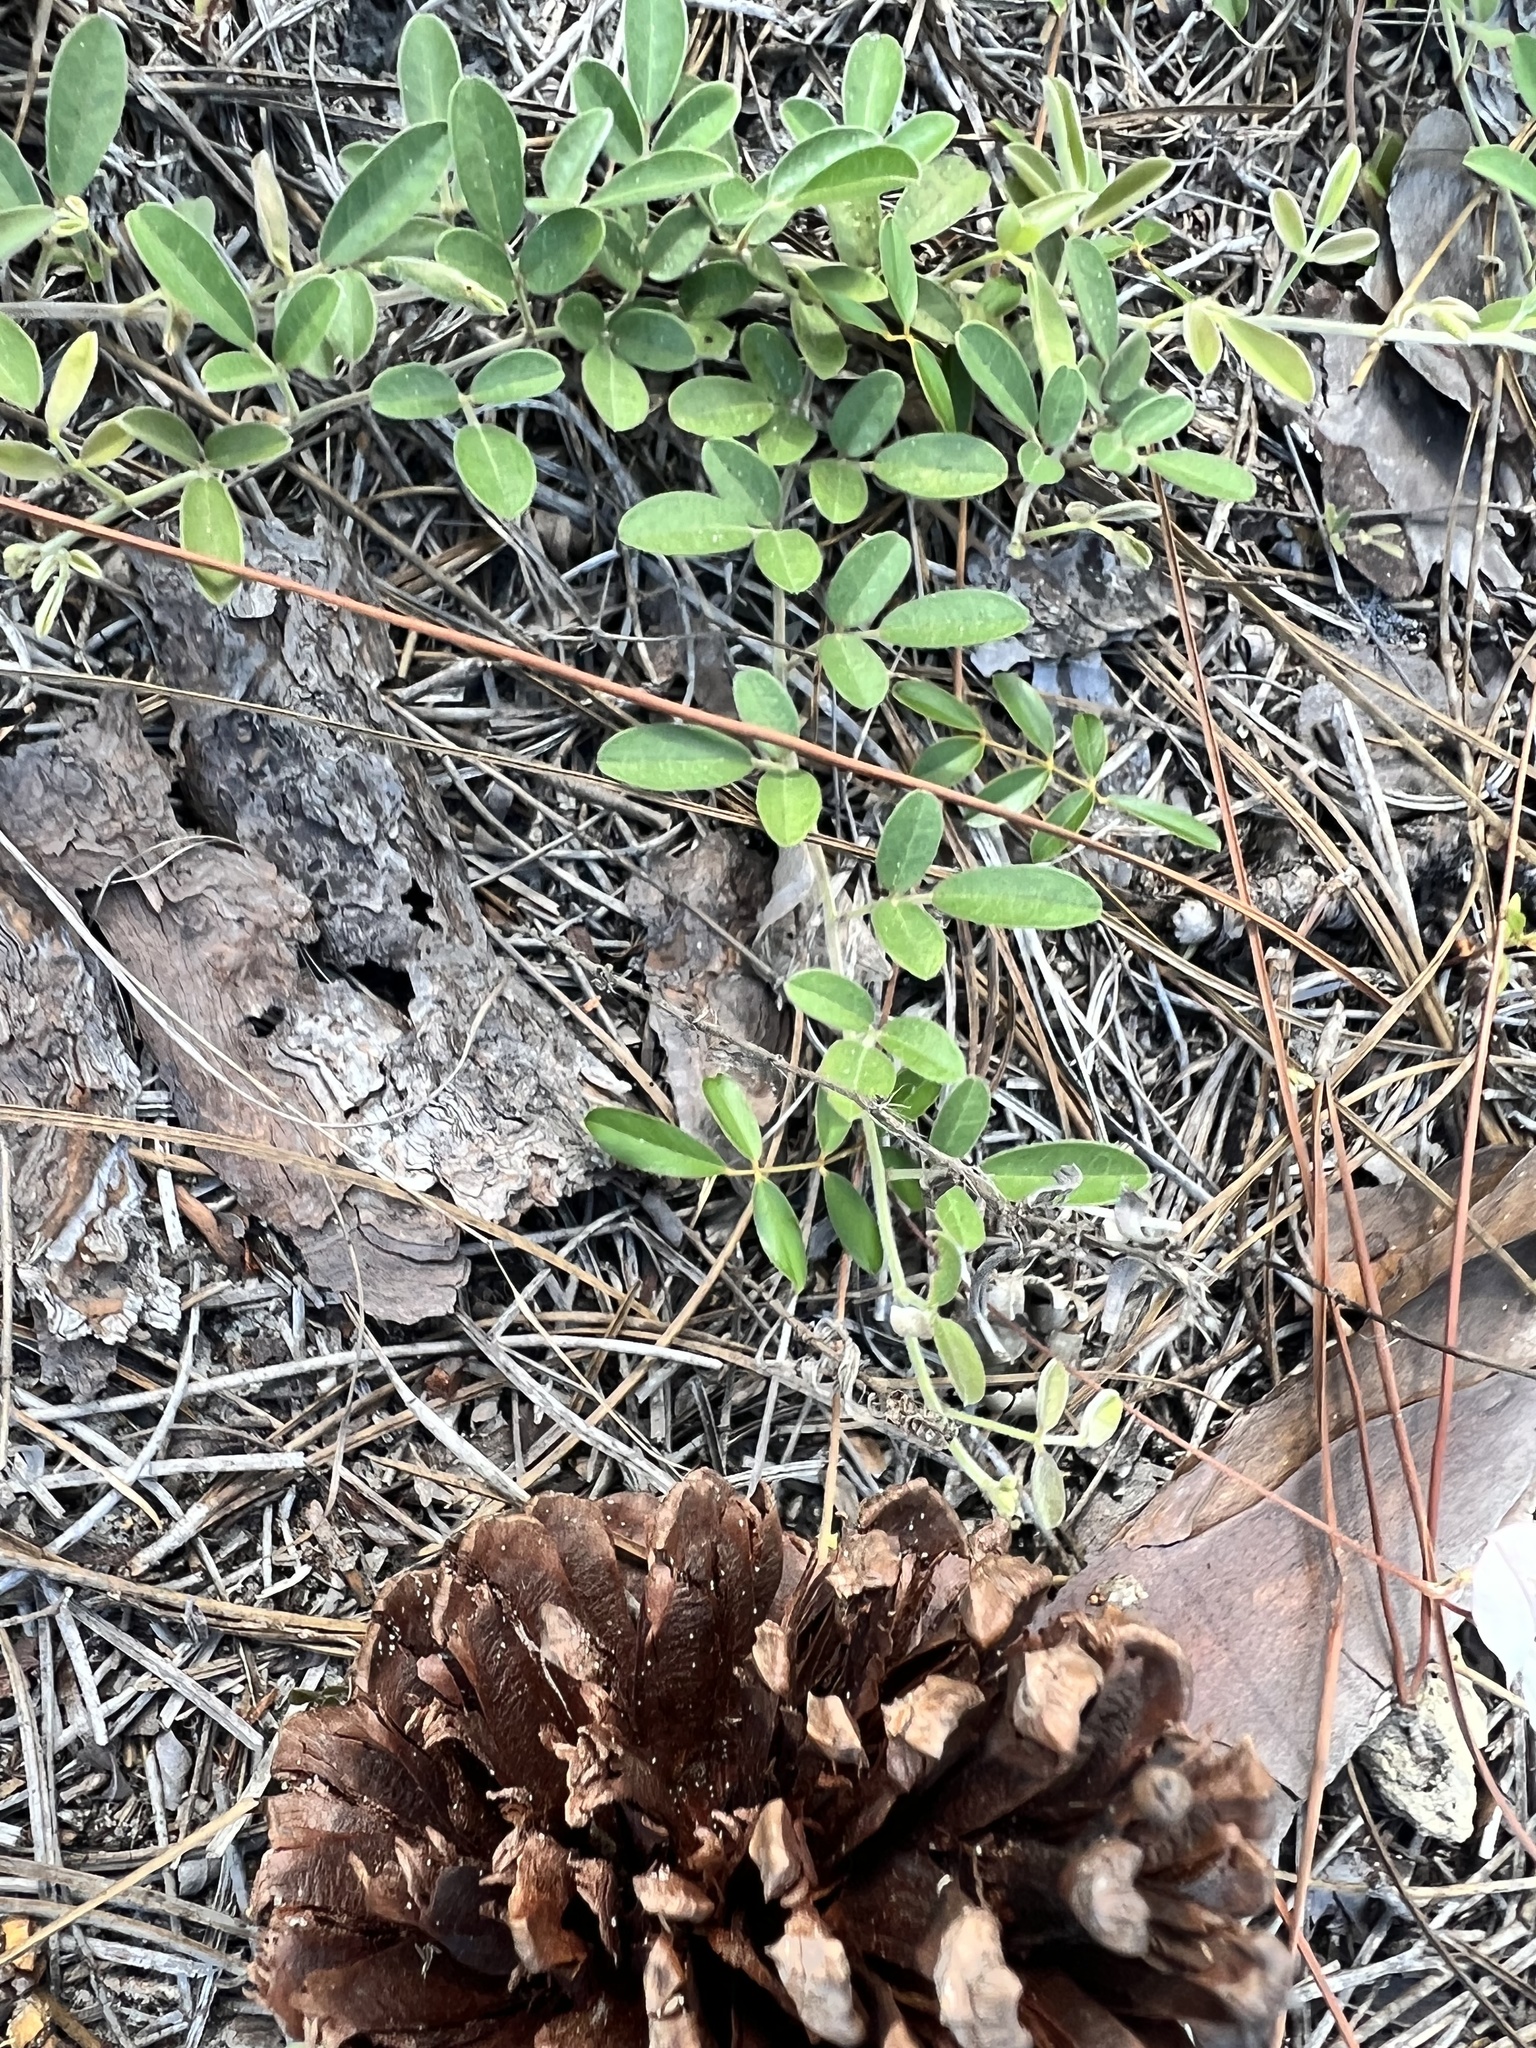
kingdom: Plantae
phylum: Tracheophyta
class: Magnoliopsida
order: Fabales
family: Fabaceae
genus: Tephrosia
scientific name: Tephrosia chrysophylla
